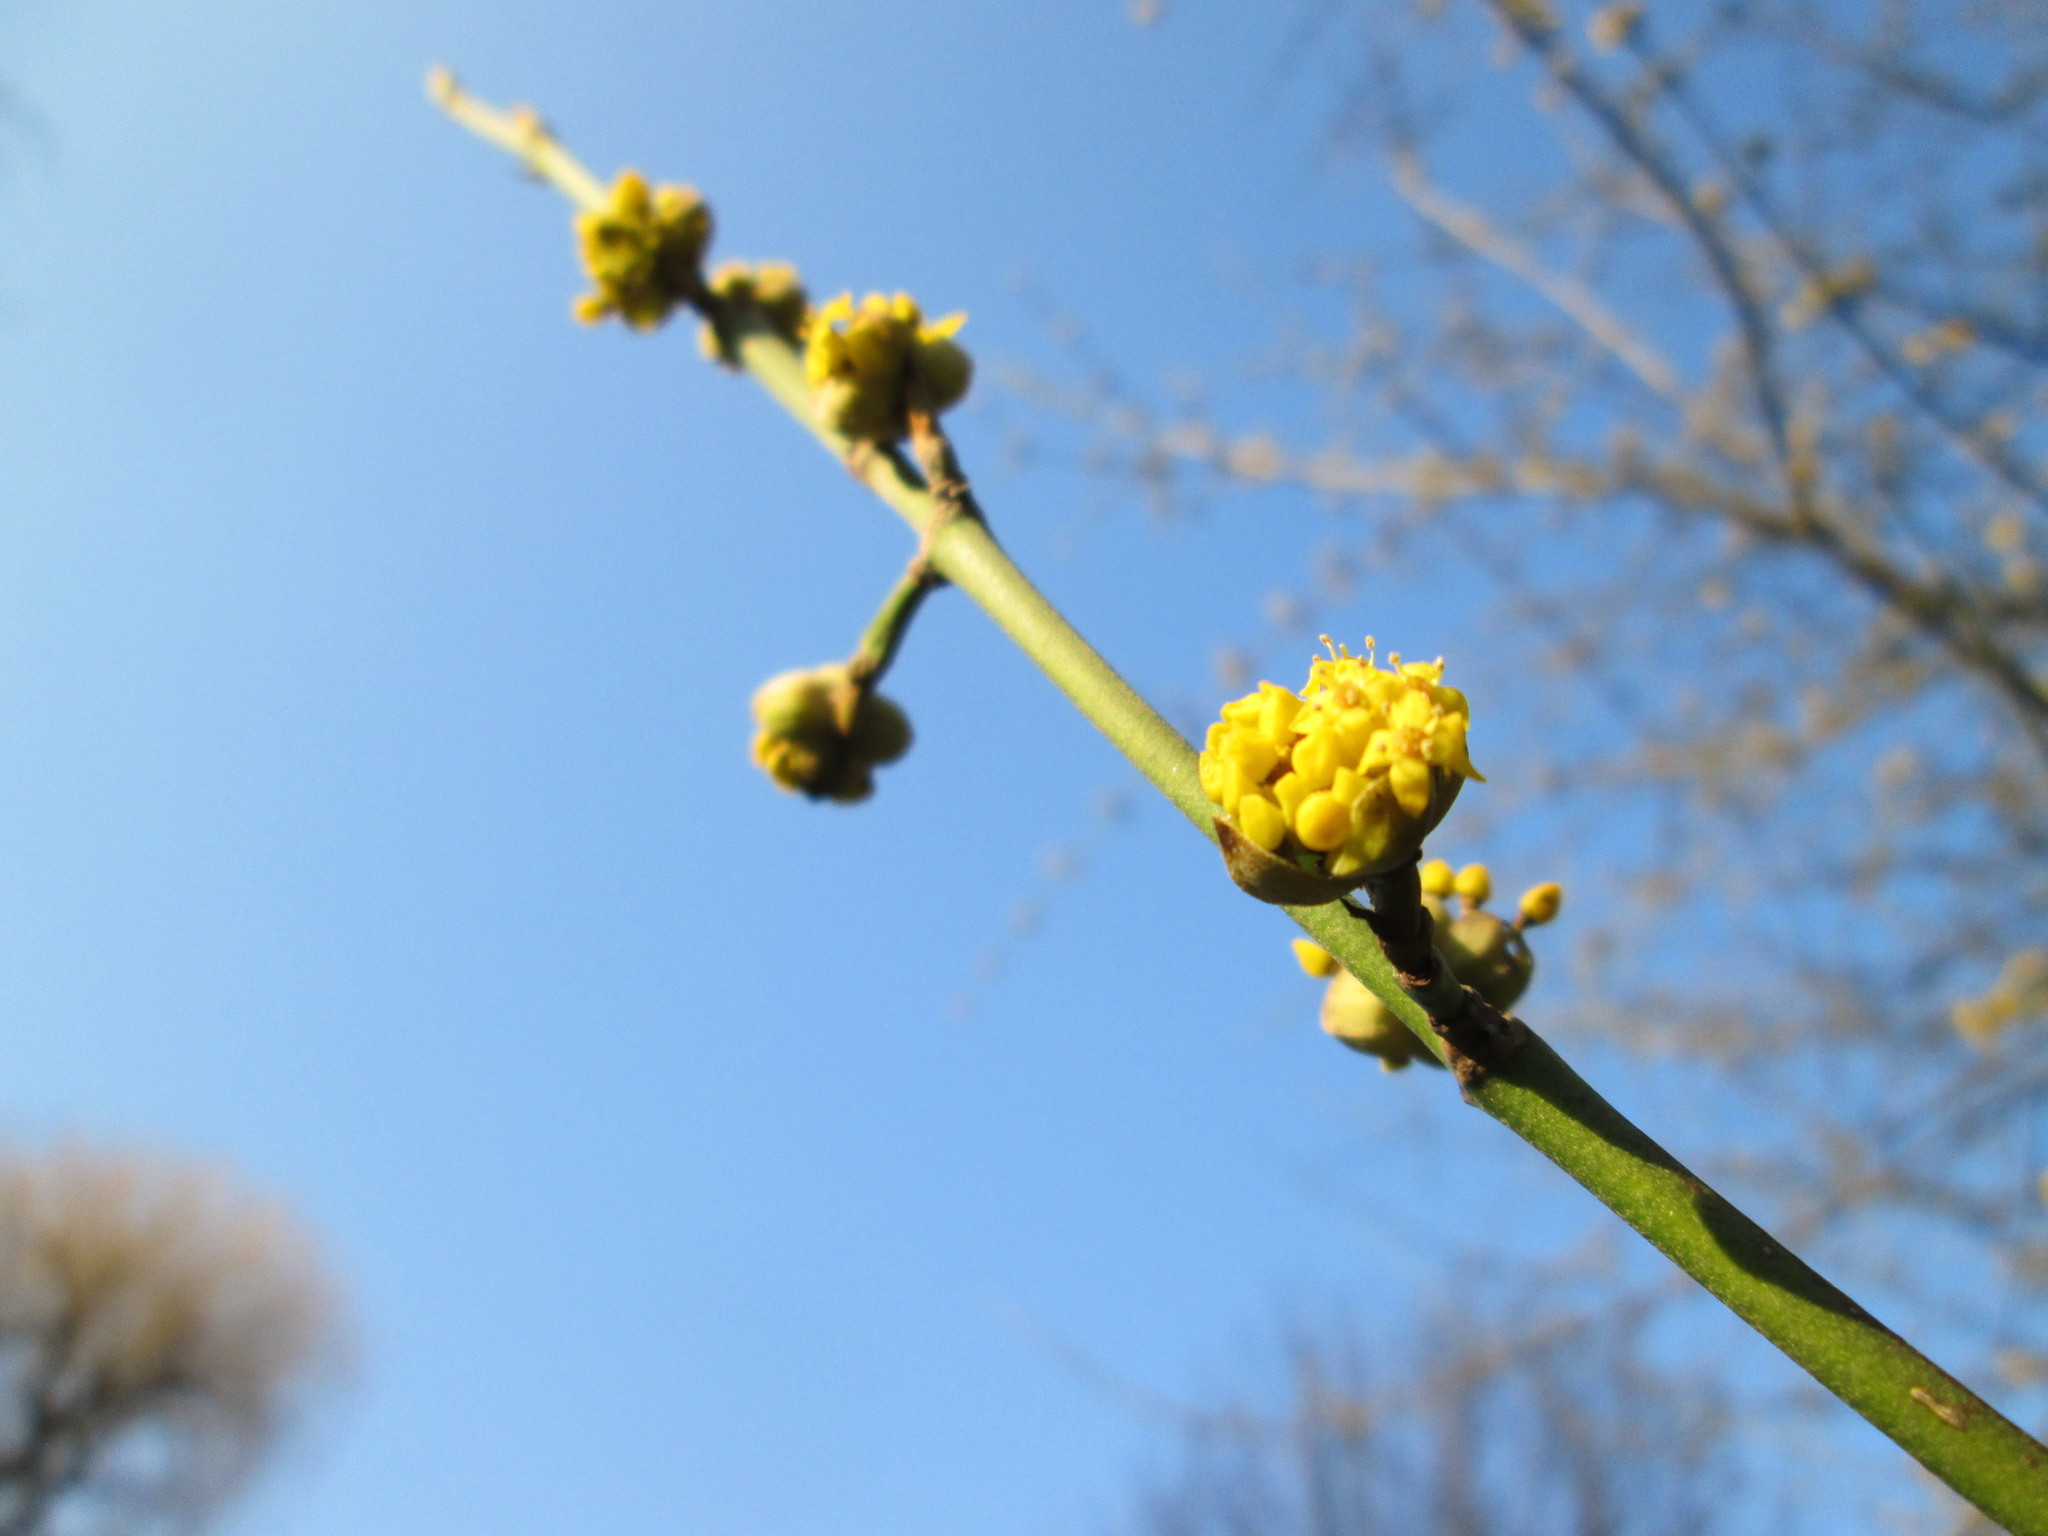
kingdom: Plantae
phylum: Tracheophyta
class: Magnoliopsida
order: Cornales
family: Cornaceae
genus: Cornus
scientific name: Cornus mas
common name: Cornelian-cherry
